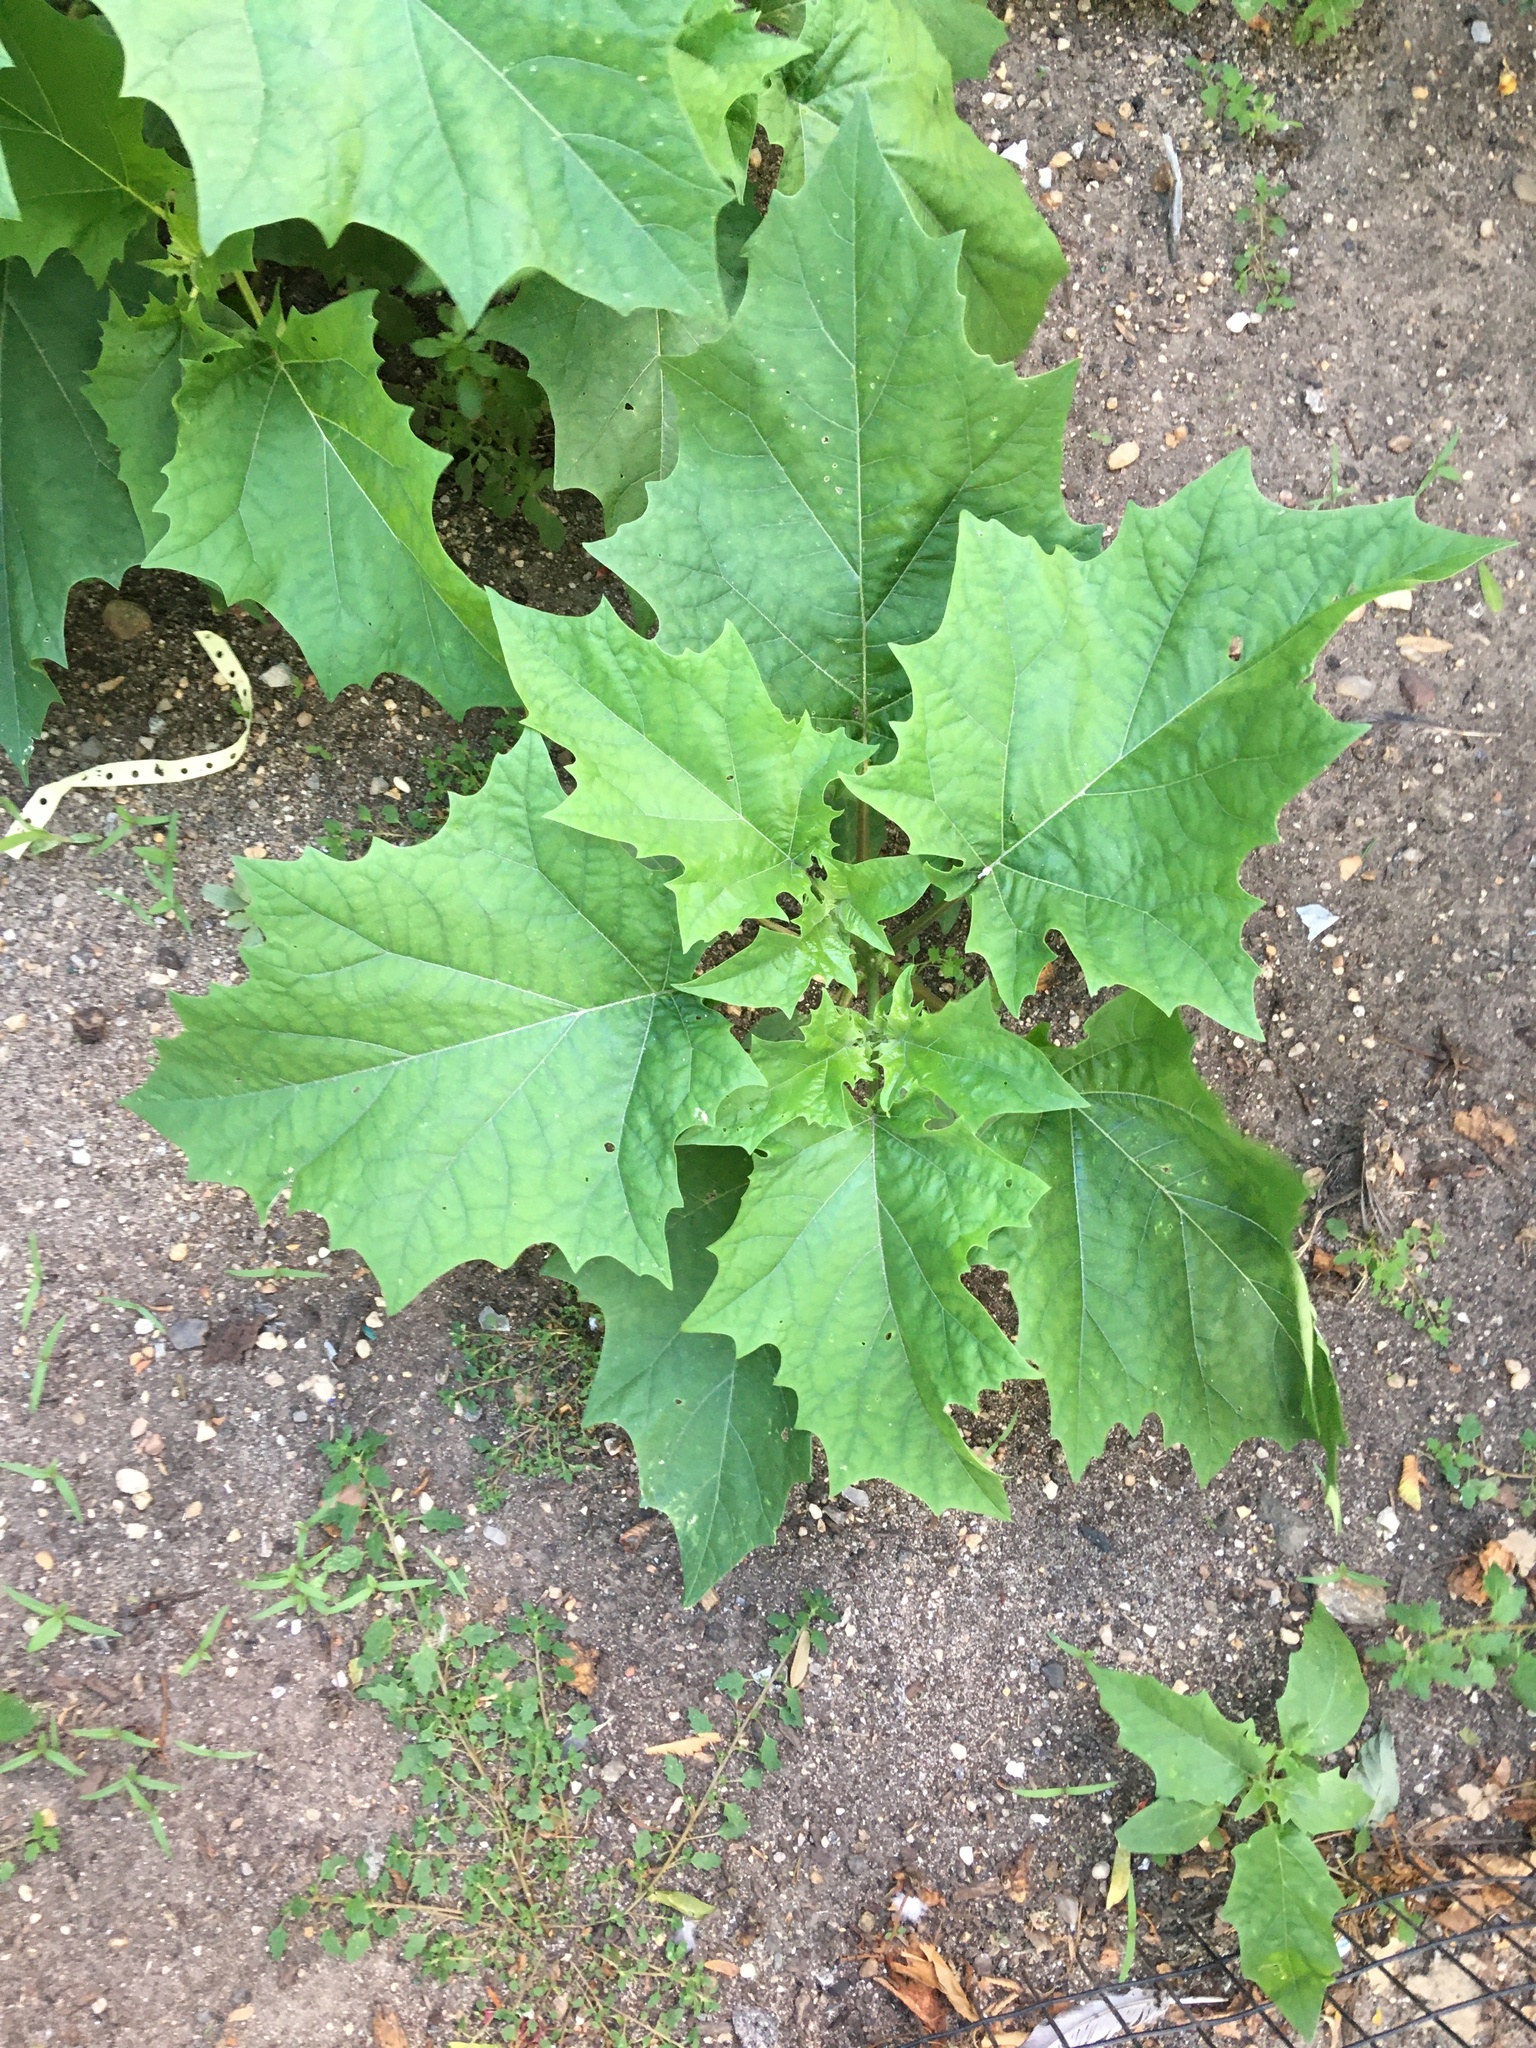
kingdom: Plantae
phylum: Tracheophyta
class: Magnoliopsida
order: Solanales
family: Solanaceae
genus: Datura
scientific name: Datura stramonium
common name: Thorn-apple
